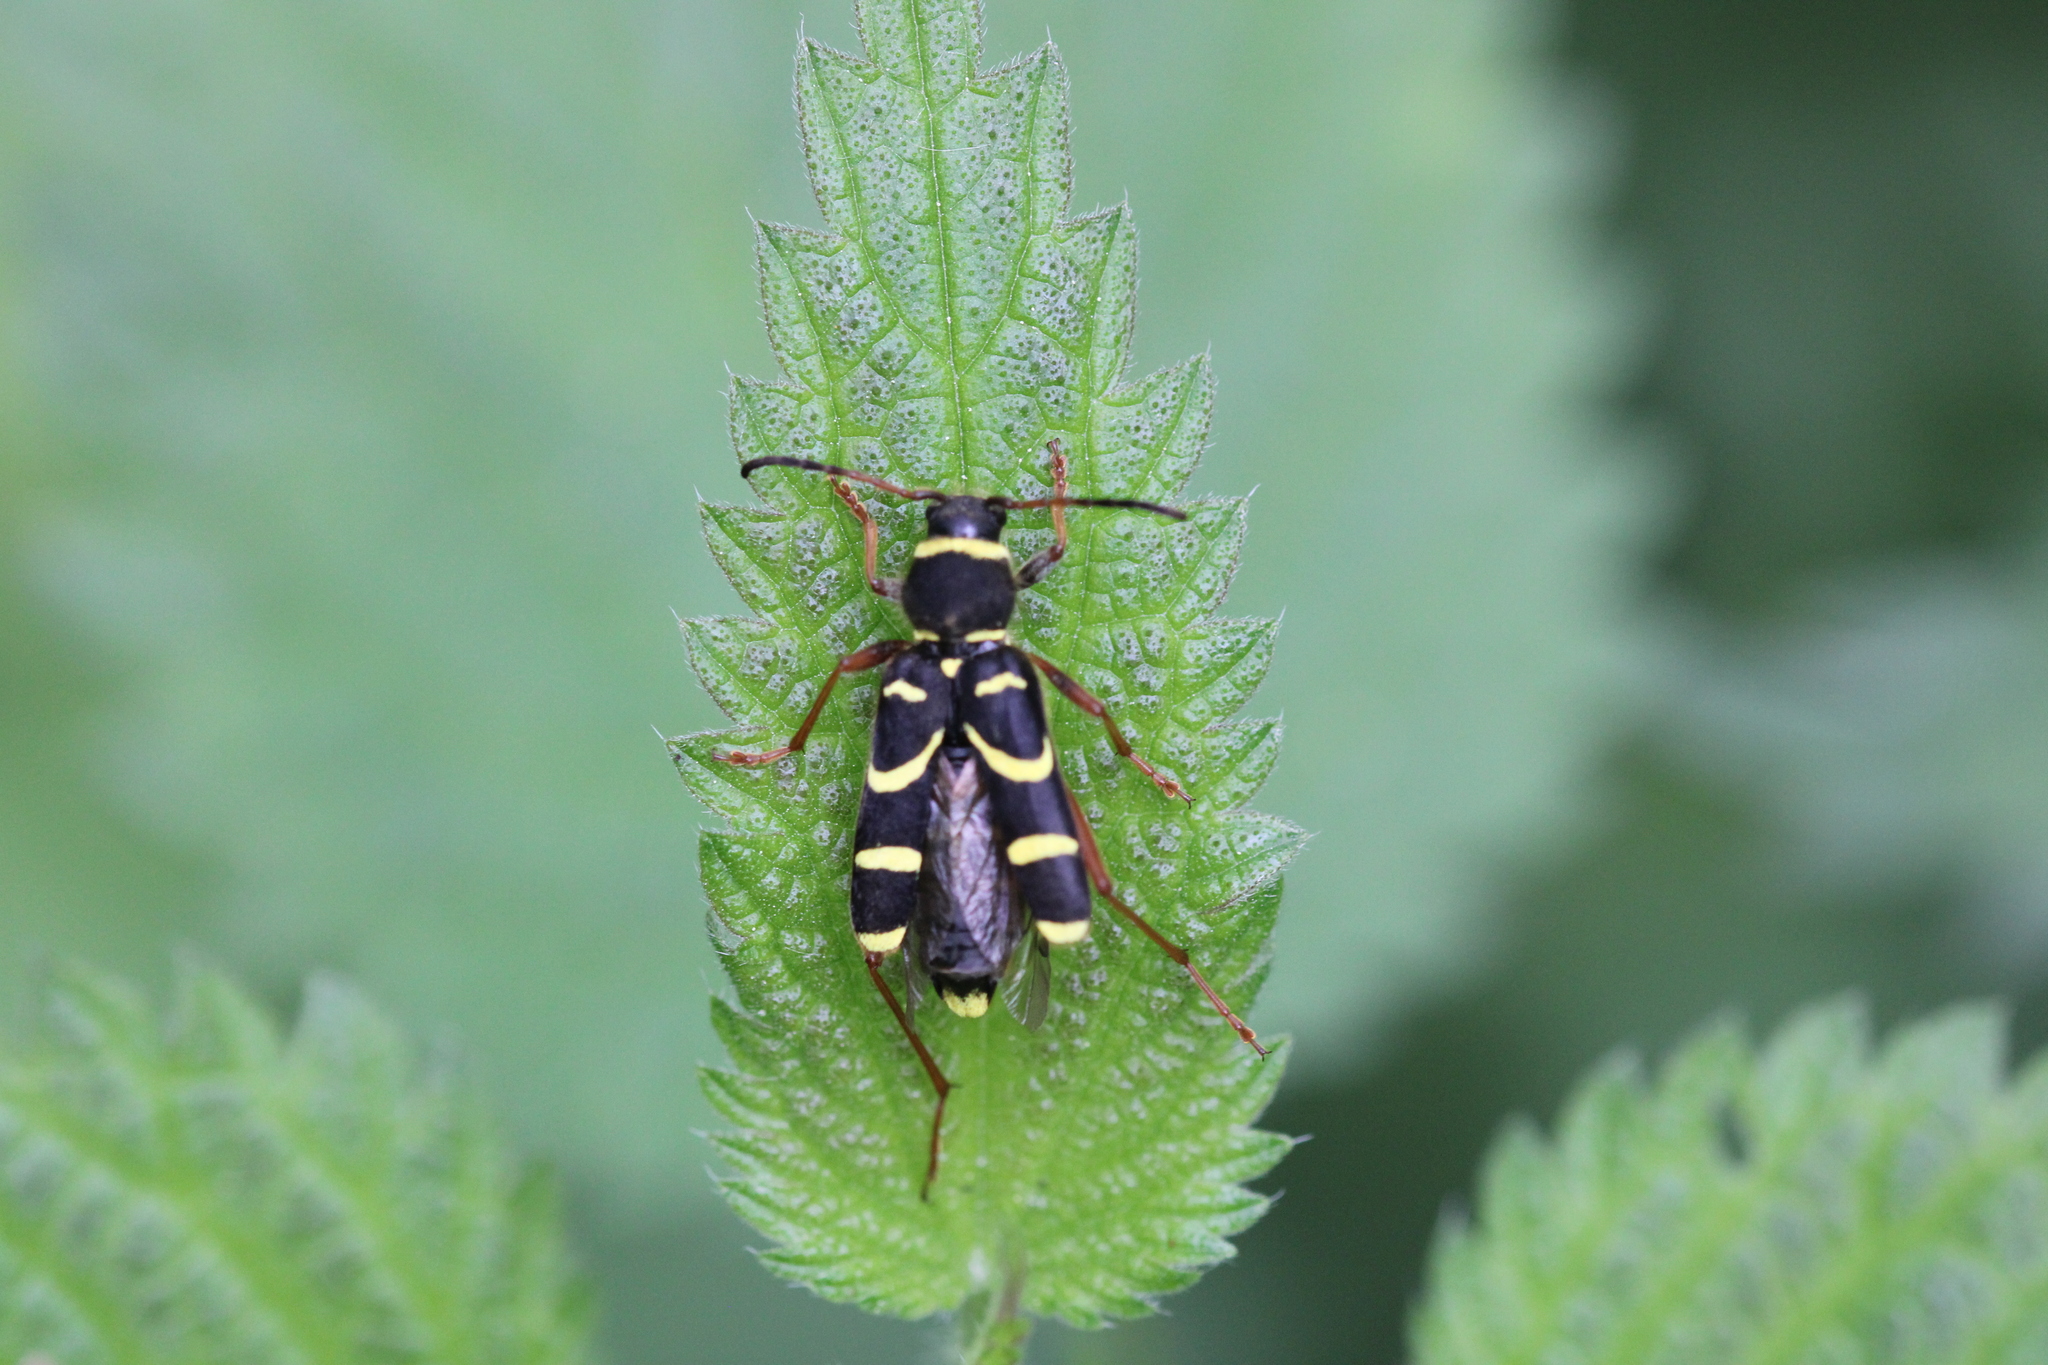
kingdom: Animalia
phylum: Arthropoda
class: Insecta
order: Coleoptera
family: Cerambycidae
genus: Clytus
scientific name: Clytus arietis
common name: Wasp beetle
